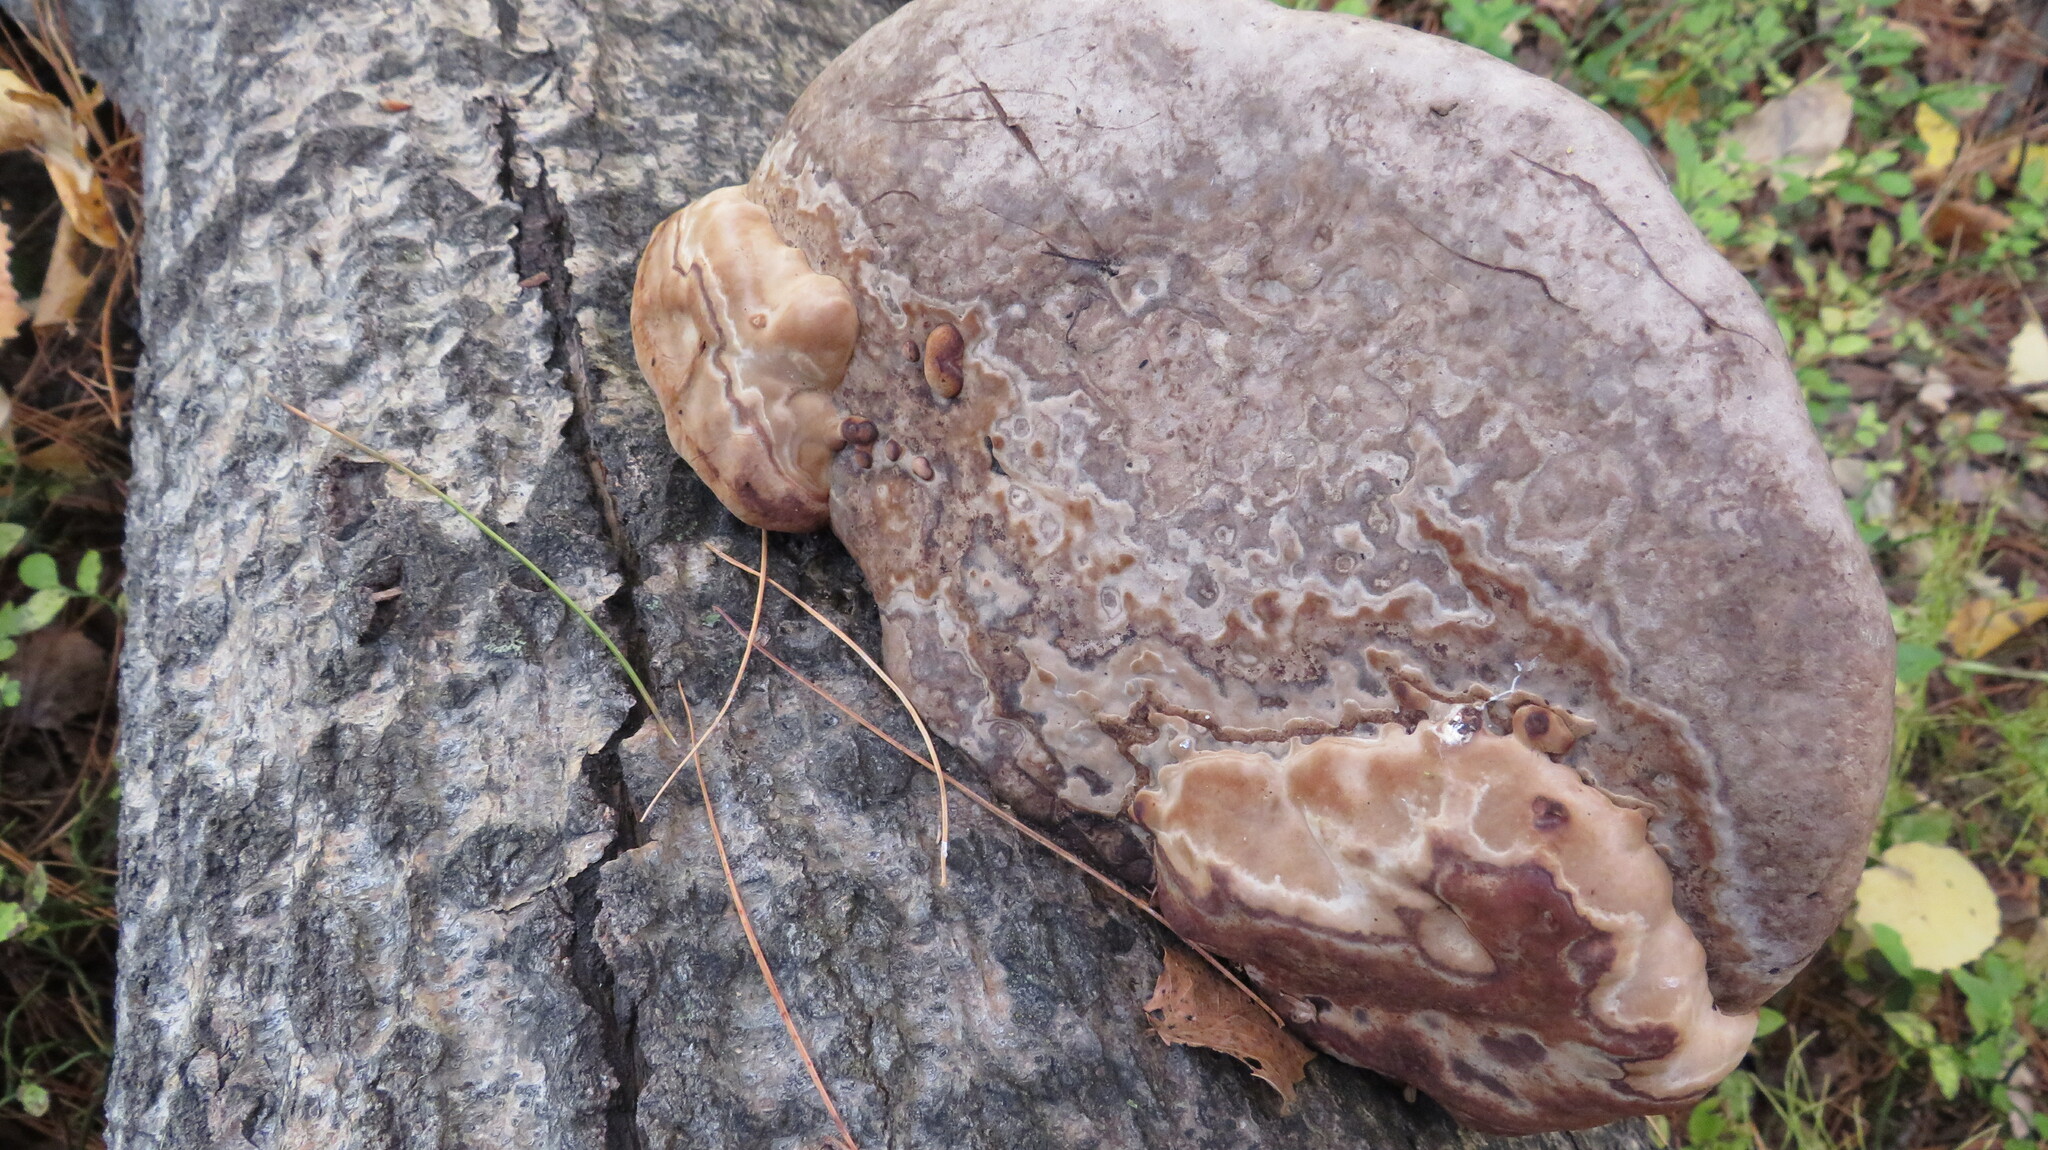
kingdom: Fungi
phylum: Basidiomycota
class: Agaricomycetes
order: Polyporales
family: Polyporaceae
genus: Fomes
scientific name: Fomes fomentarius
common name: Hoof fungus
